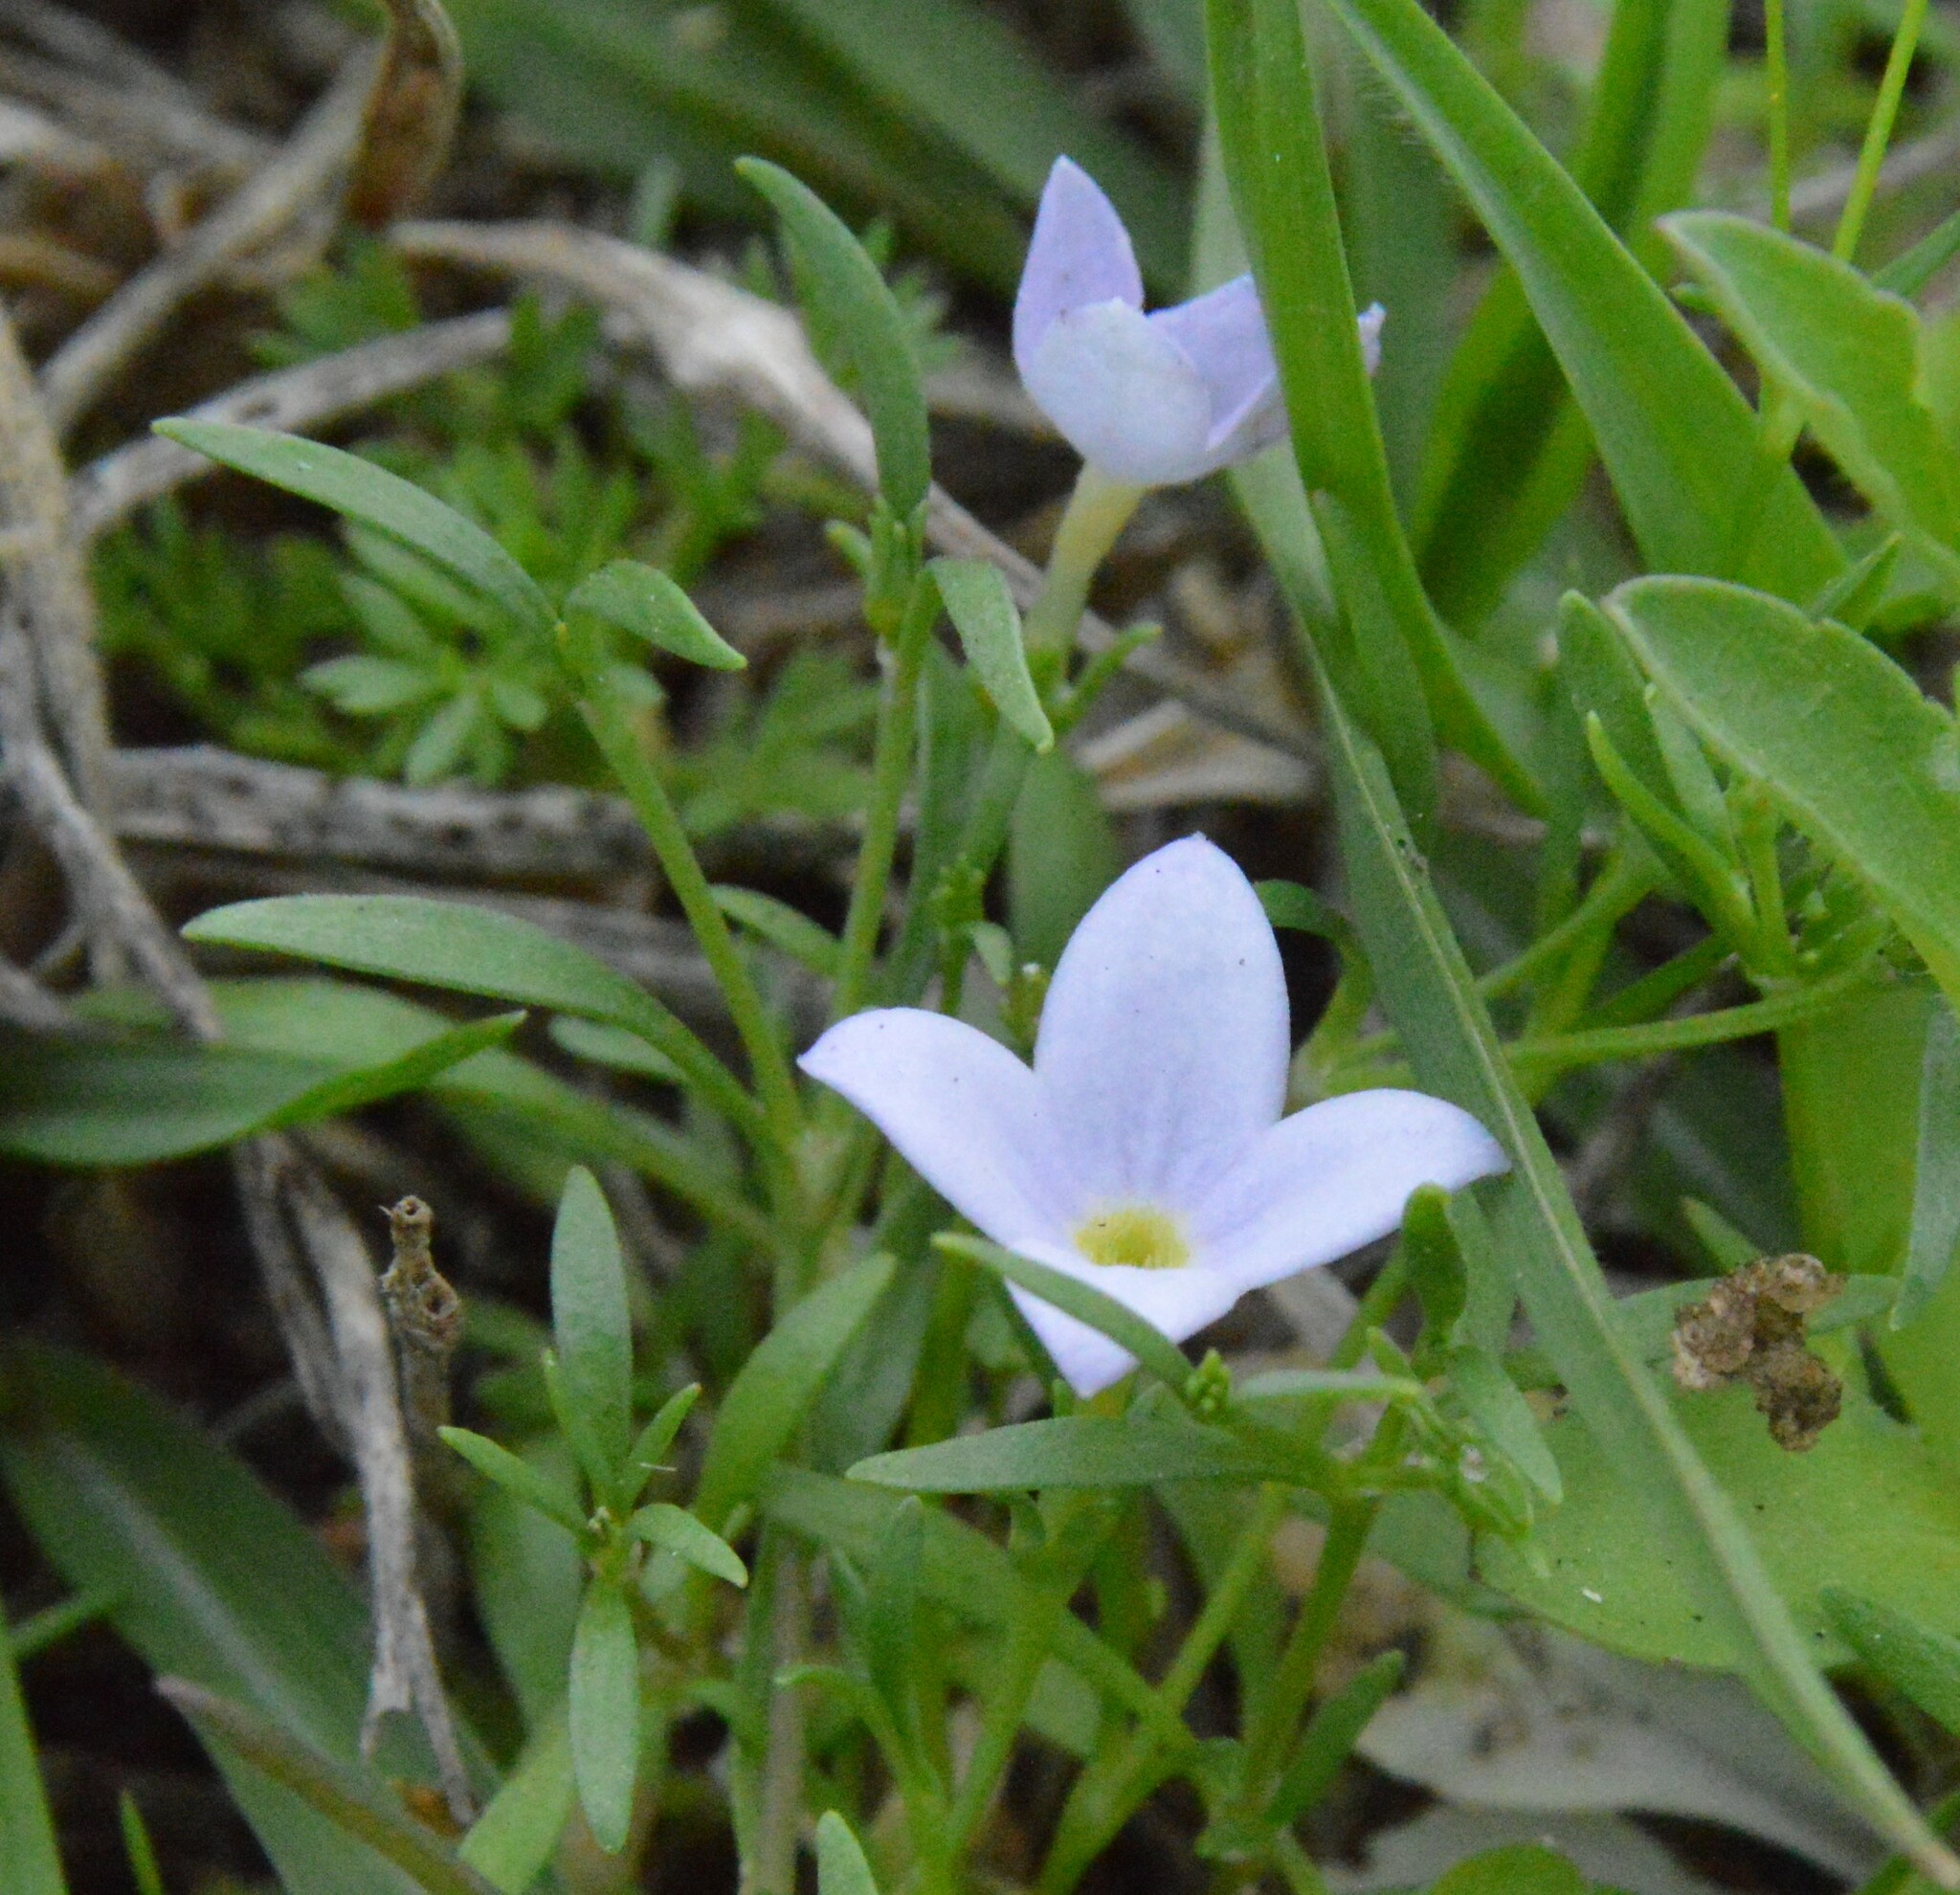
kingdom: Plantae
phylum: Tracheophyta
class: Magnoliopsida
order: Gentianales
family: Rubiaceae
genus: Houstonia
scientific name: Houstonia rosea
